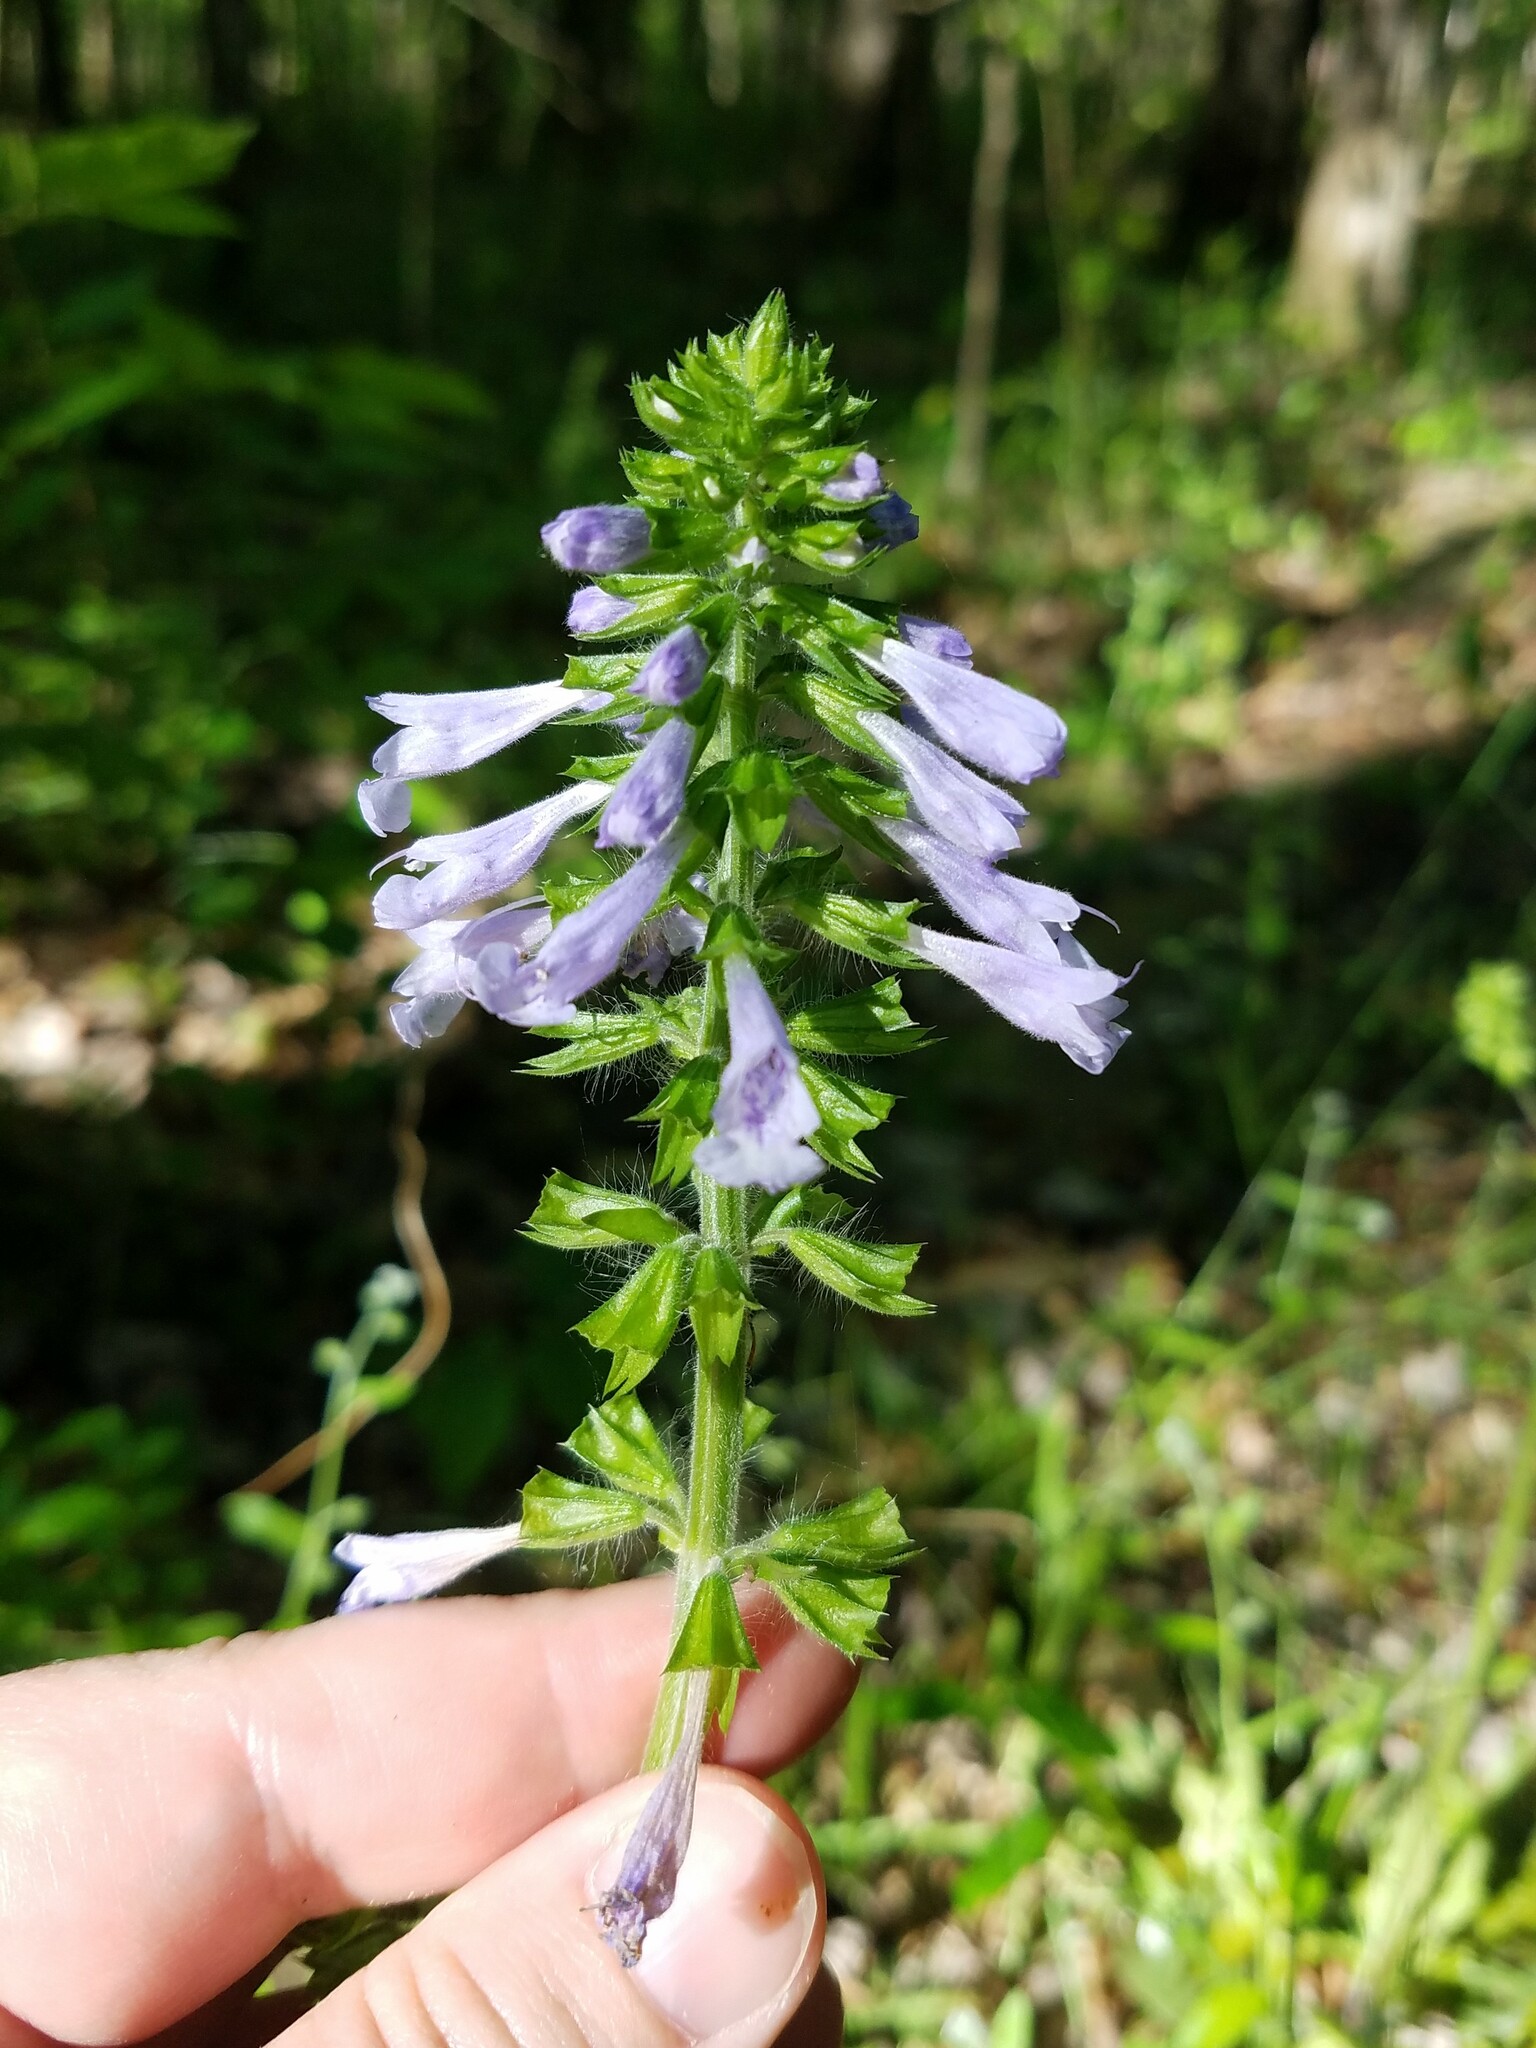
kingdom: Plantae
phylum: Tracheophyta
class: Magnoliopsida
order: Lamiales
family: Lamiaceae
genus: Salvia
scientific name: Salvia lyrata
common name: Cancerweed
